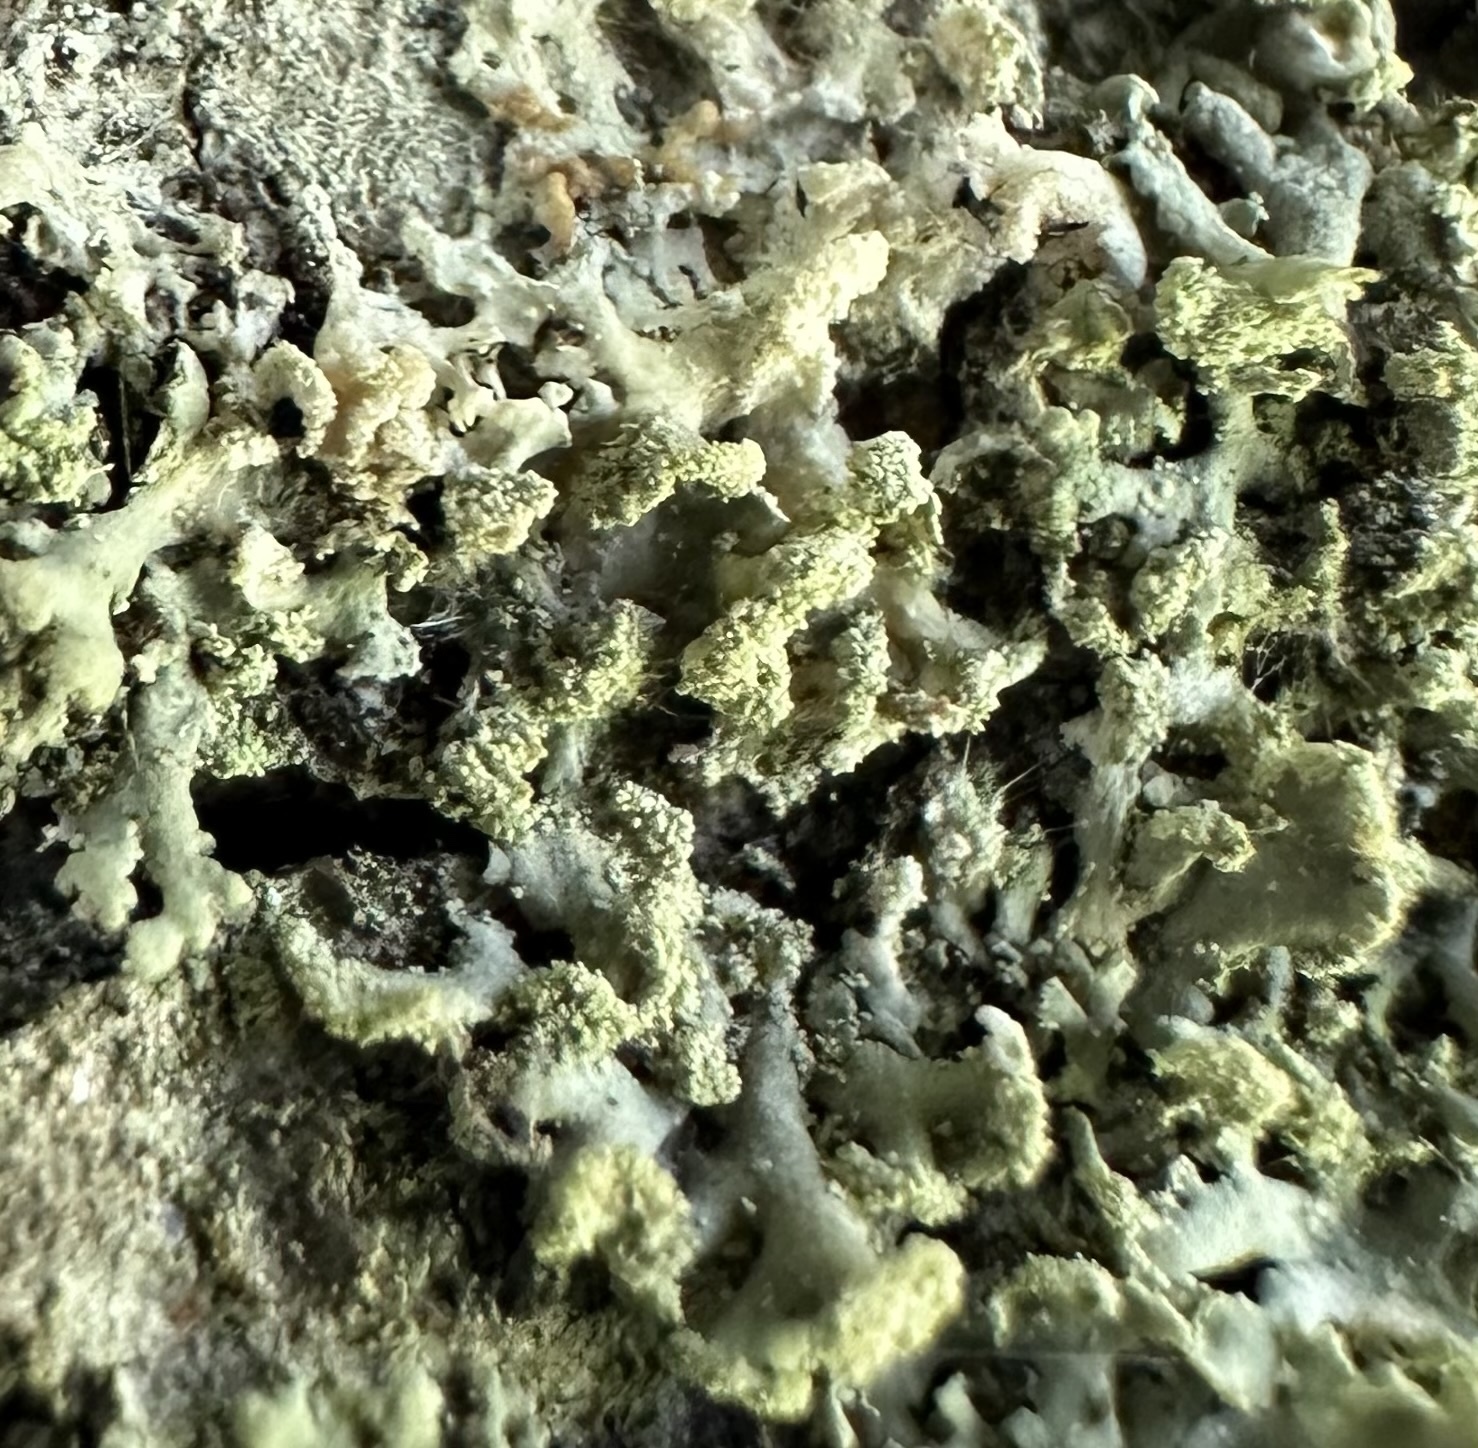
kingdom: Fungi
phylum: Ascomycota
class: Lecanoromycetes
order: Caliciales
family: Physciaceae
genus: Physcia
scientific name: Physcia tenella
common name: Fringed rosette lichen
